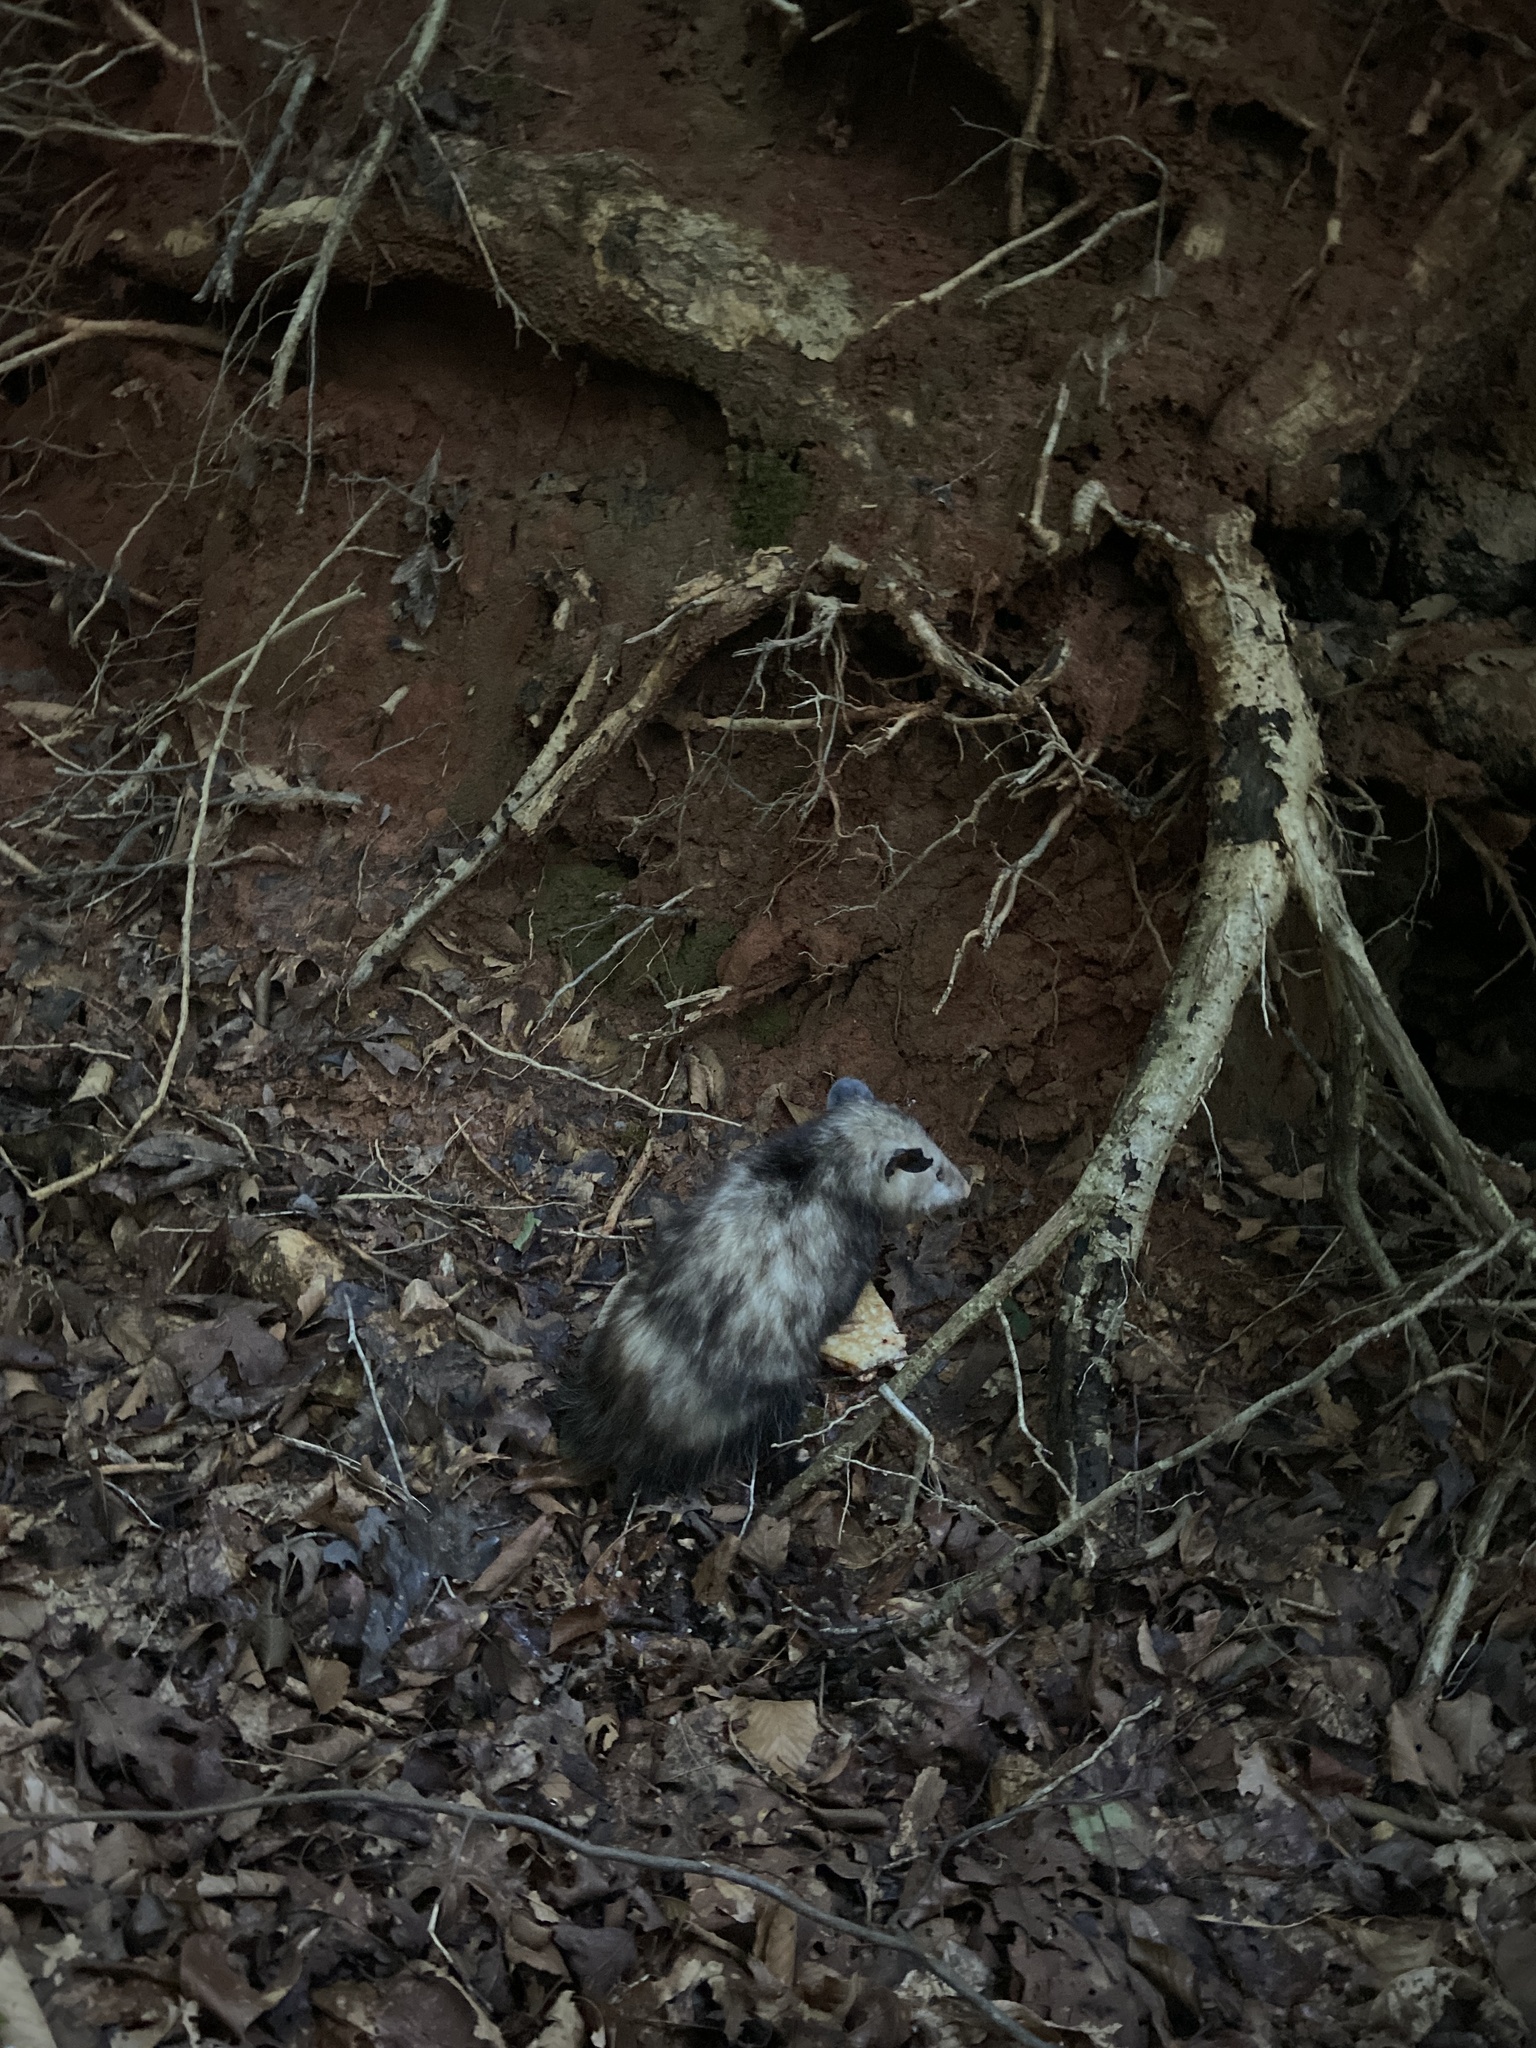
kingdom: Animalia
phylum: Chordata
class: Mammalia
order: Didelphimorphia
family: Didelphidae
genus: Didelphis
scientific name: Didelphis virginiana
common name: Virginia opossum
